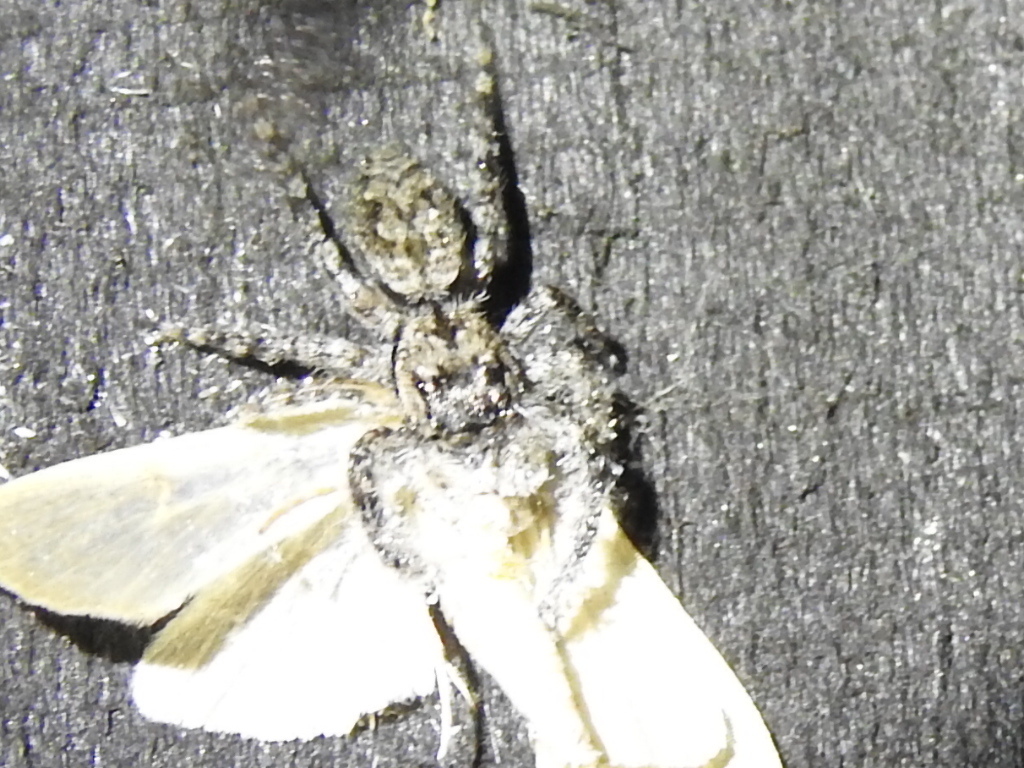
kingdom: Animalia
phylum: Arthropoda
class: Arachnida
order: Araneae
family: Salticidae
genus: Platycryptus
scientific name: Platycryptus undatus
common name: Tan jumping spider
